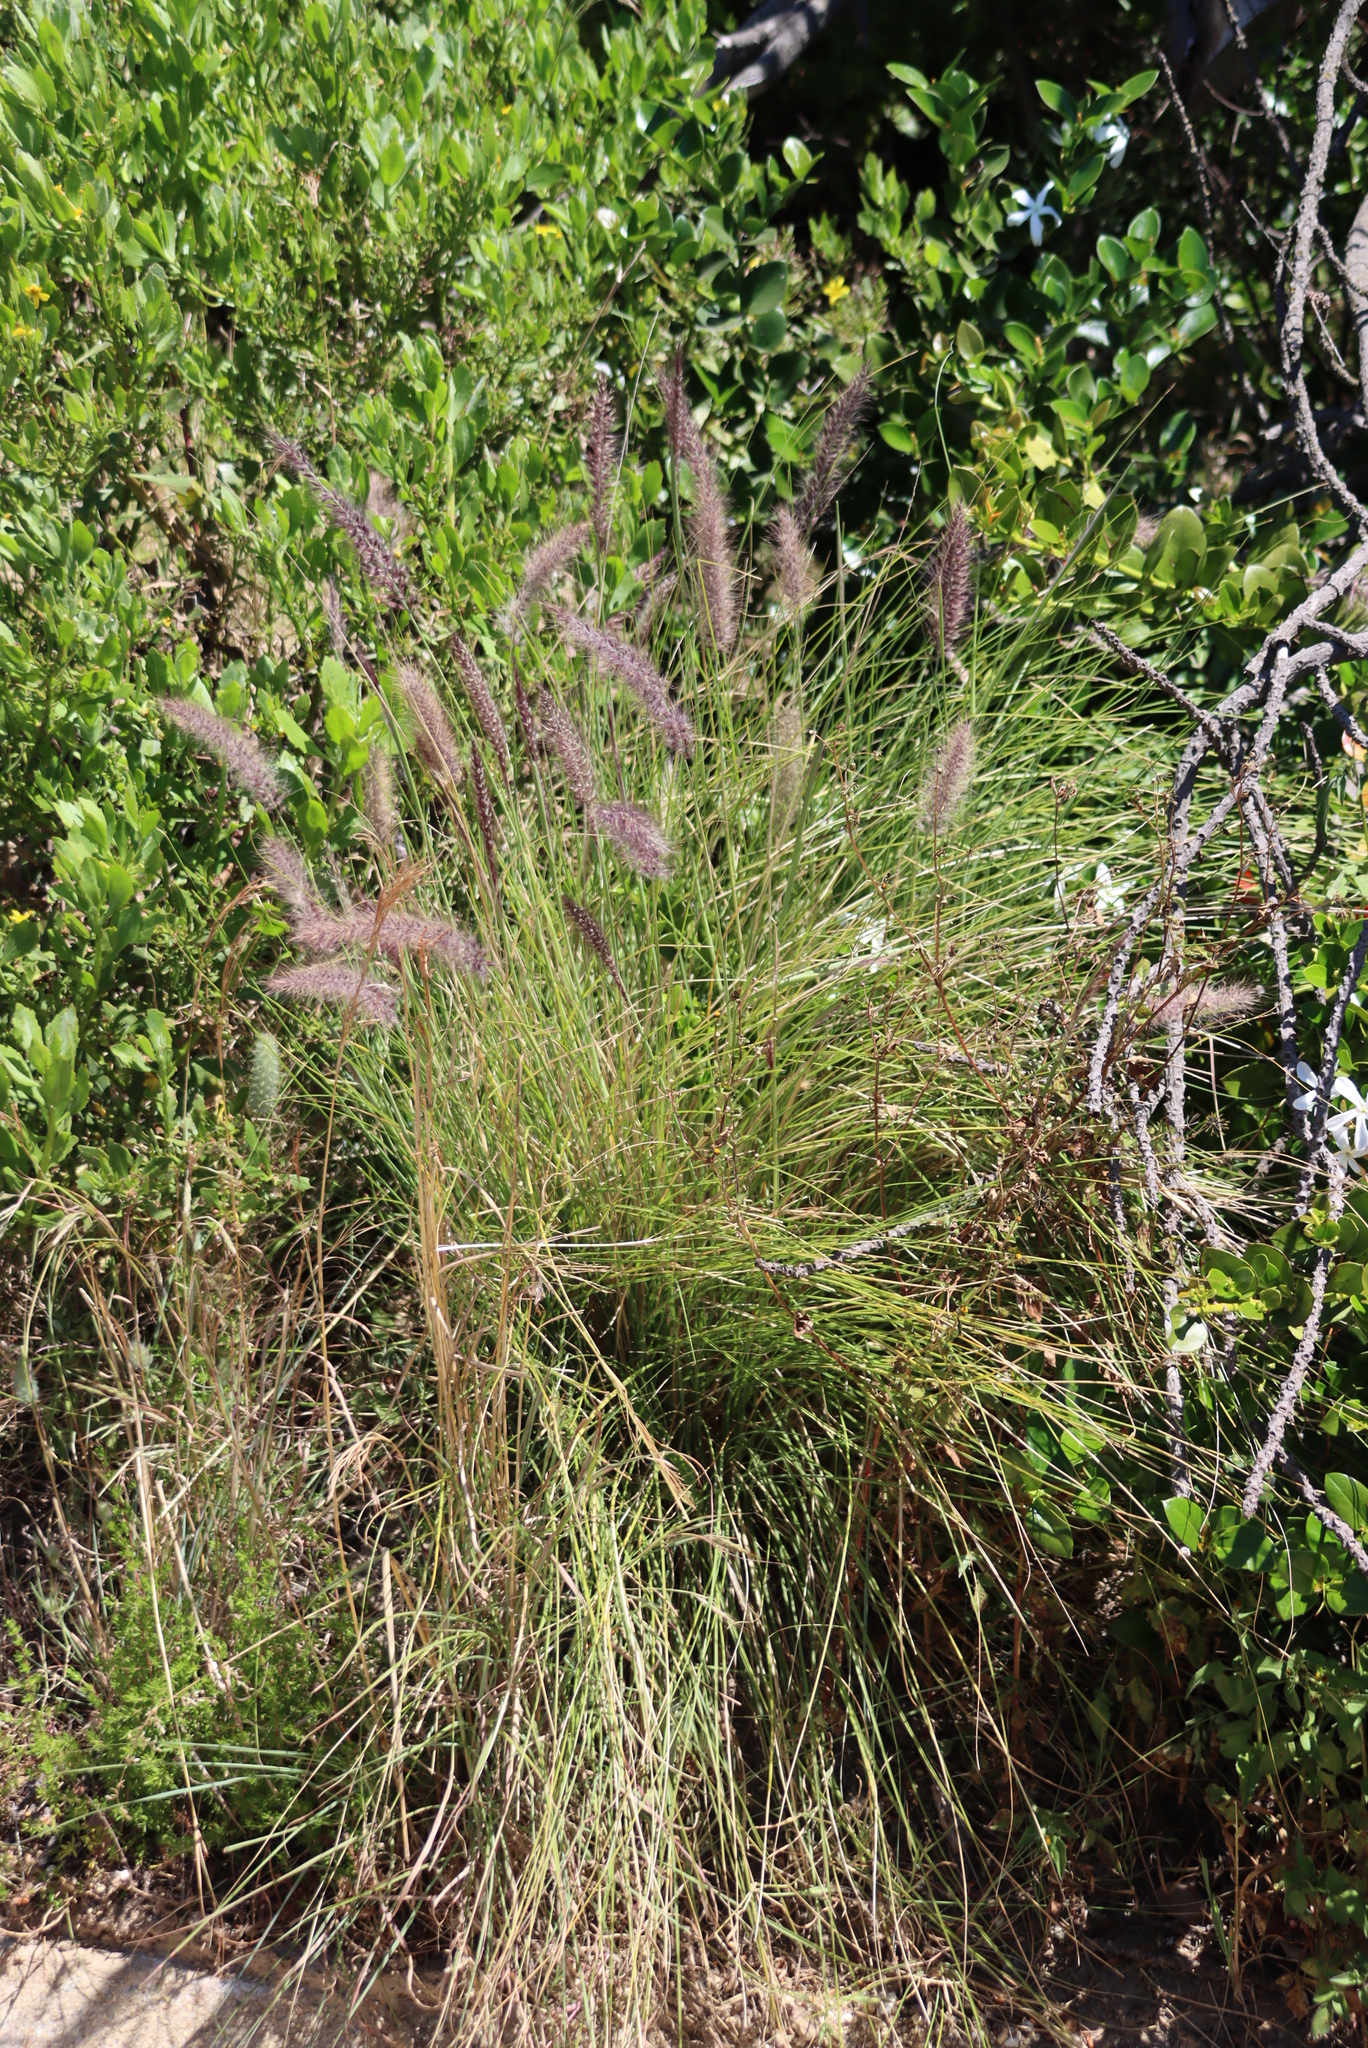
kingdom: Plantae
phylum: Tracheophyta
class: Liliopsida
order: Poales
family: Poaceae
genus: Cenchrus
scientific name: Cenchrus setaceus
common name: Crimson fountaingrass
